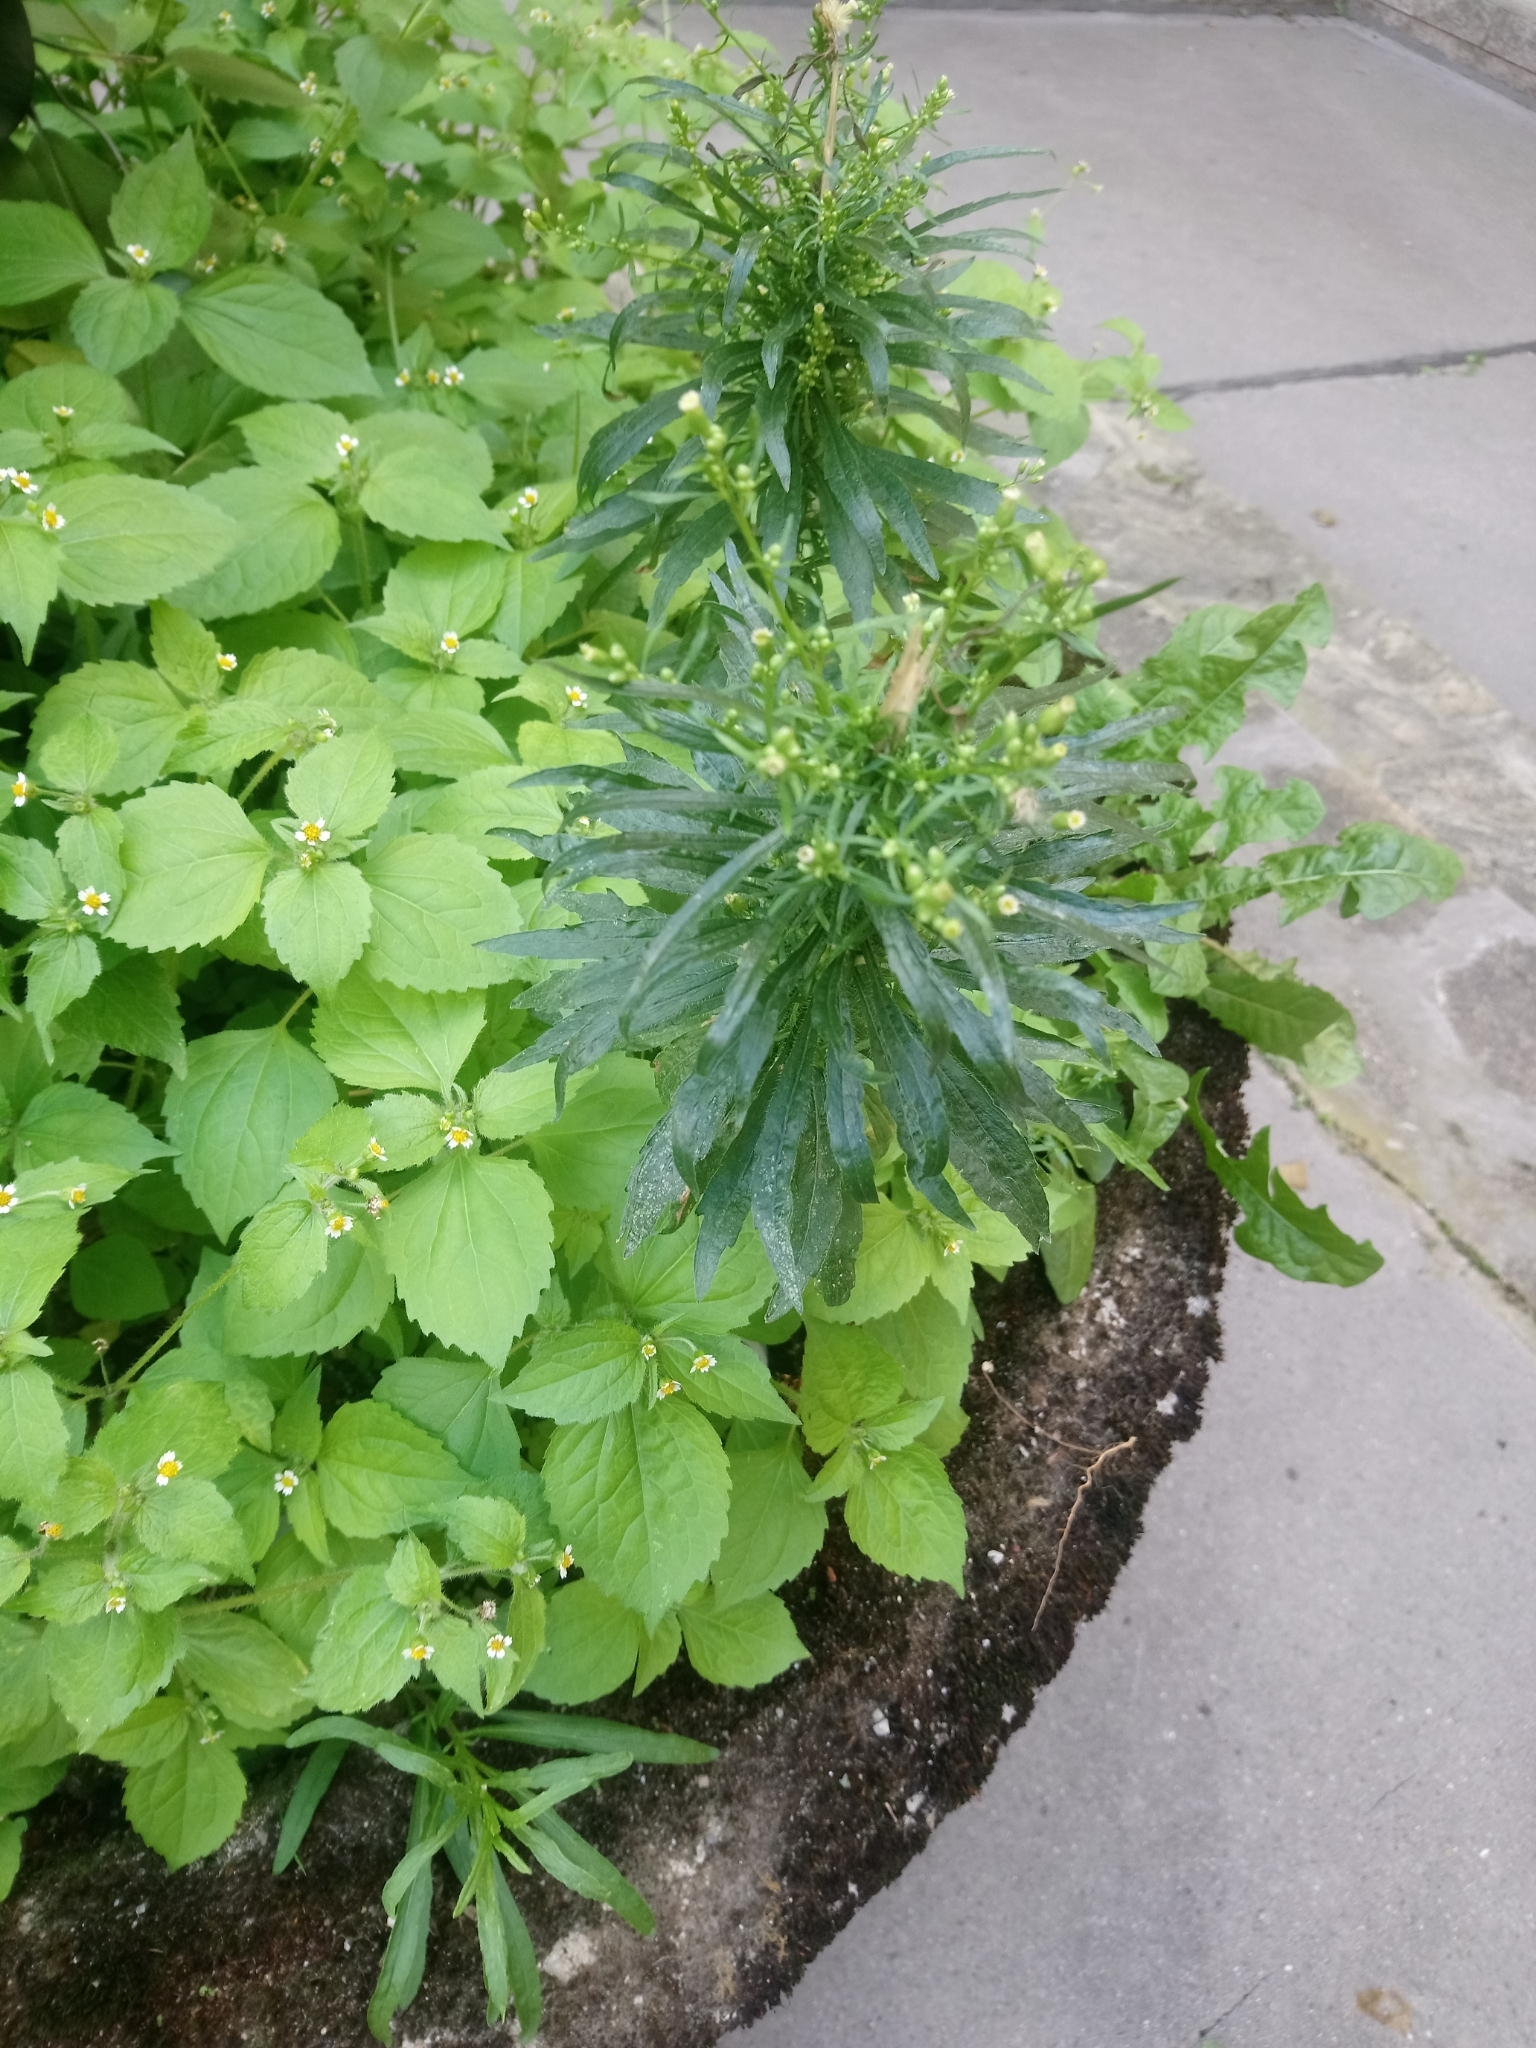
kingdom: Plantae
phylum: Tracheophyta
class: Magnoliopsida
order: Asterales
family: Asteraceae
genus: Erigeron
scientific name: Erigeron canadensis
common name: Canadian fleabane
